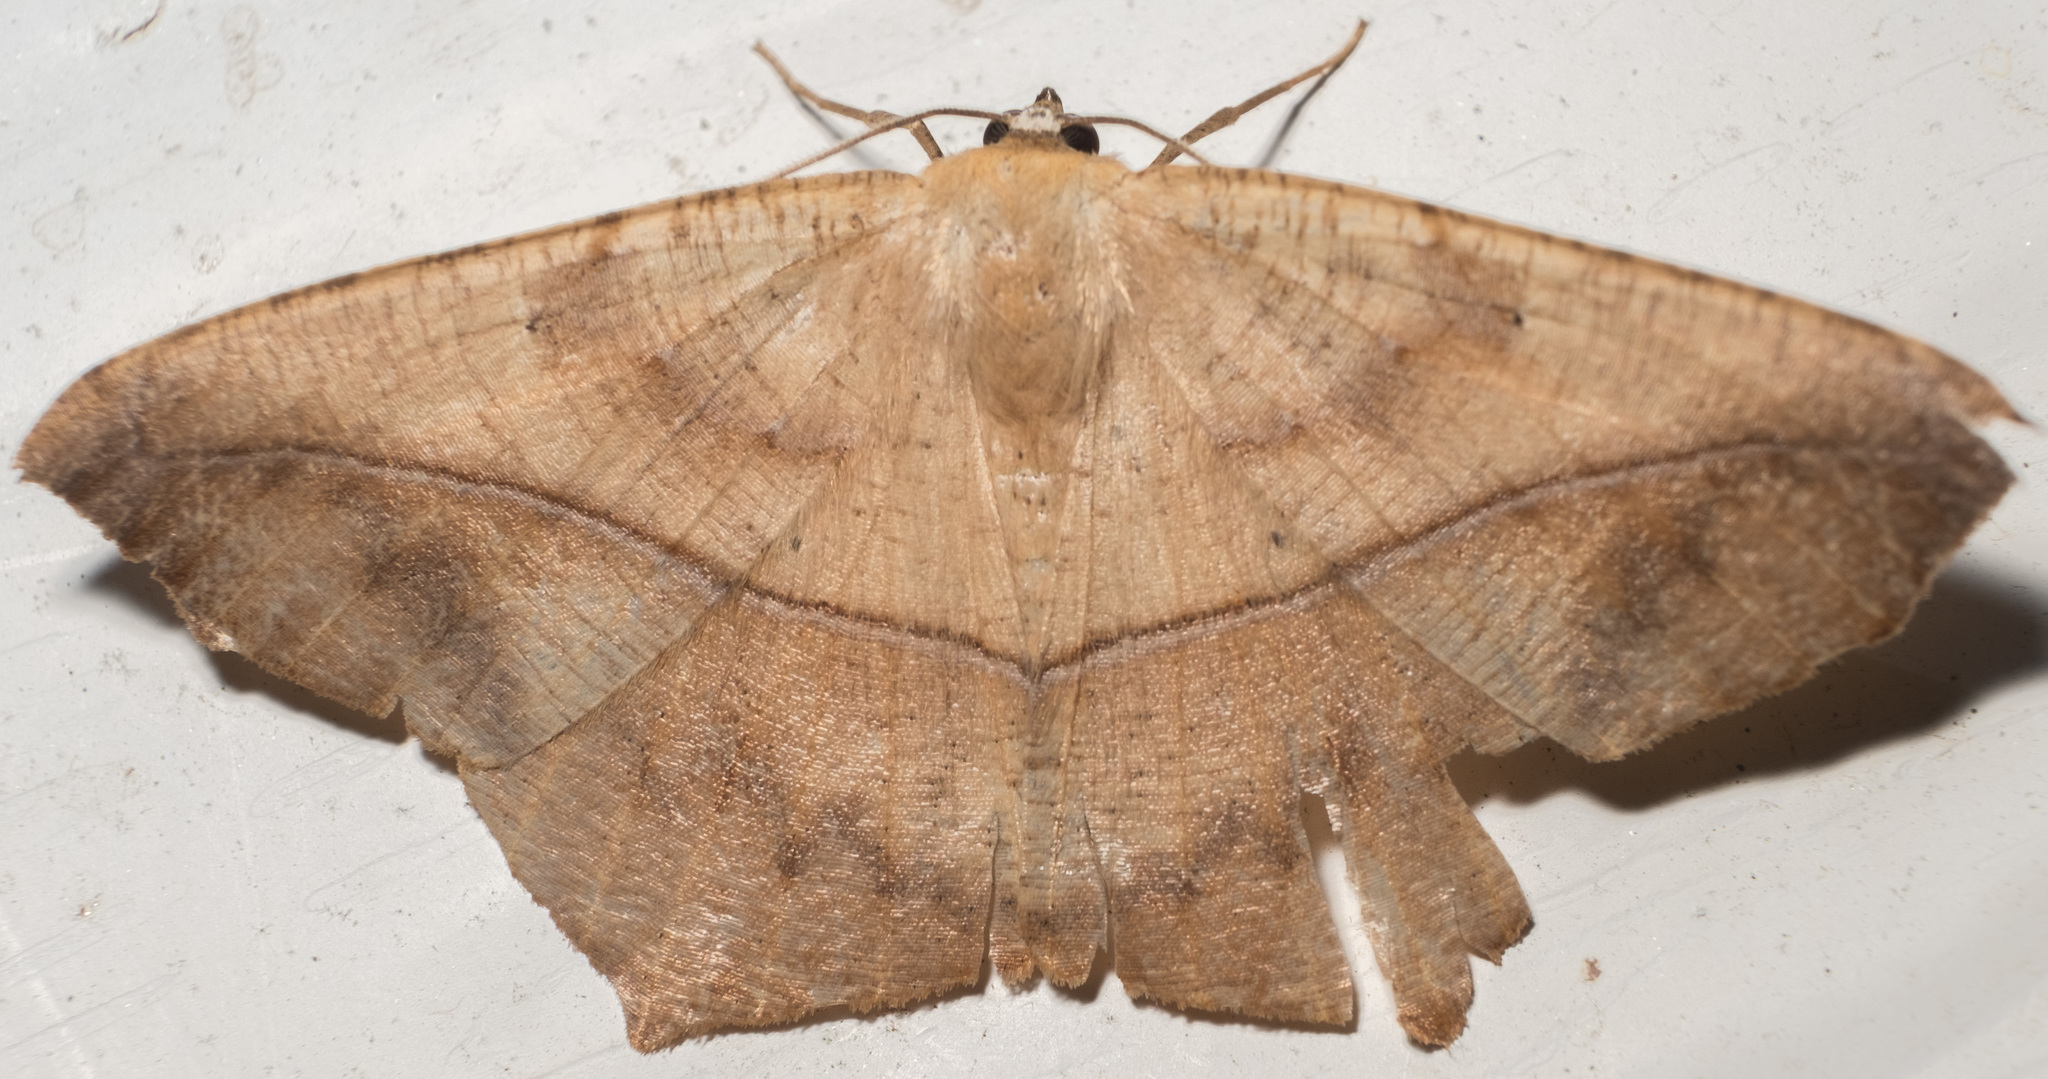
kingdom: Animalia
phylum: Arthropoda
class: Insecta
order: Lepidoptera
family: Geometridae
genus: Prochoerodes
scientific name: Prochoerodes lineola
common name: Large maple spanworm
